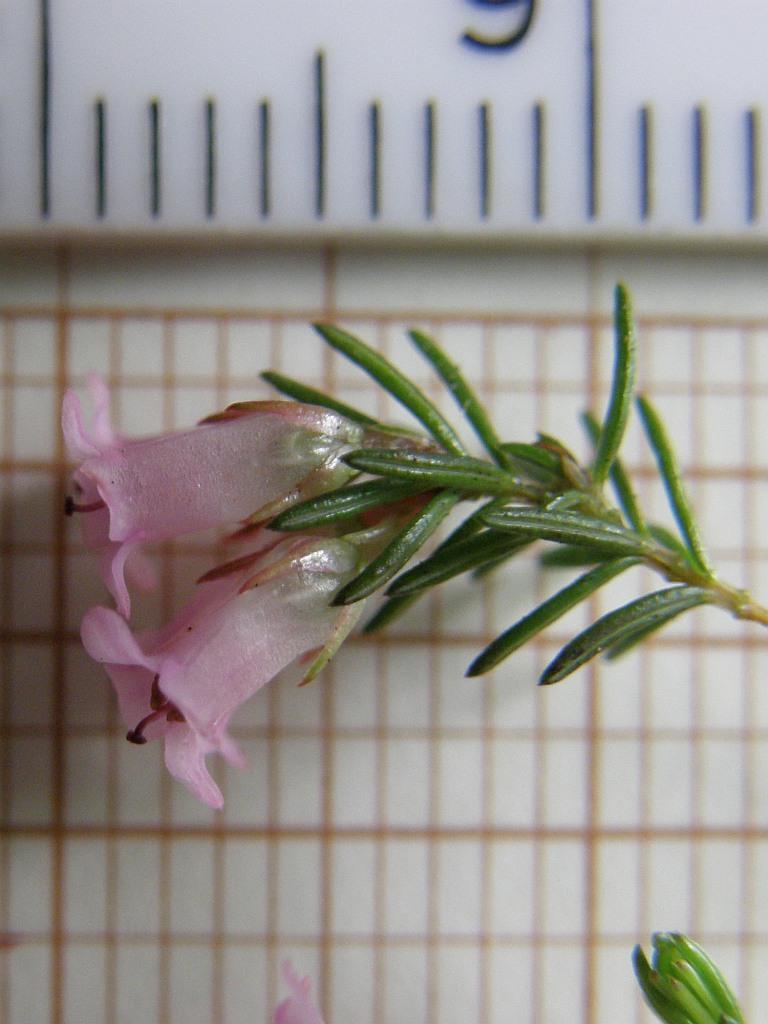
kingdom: Plantae
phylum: Tracheophyta
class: Magnoliopsida
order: Ericales
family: Ericaceae
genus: Erica
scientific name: Erica leucantha
